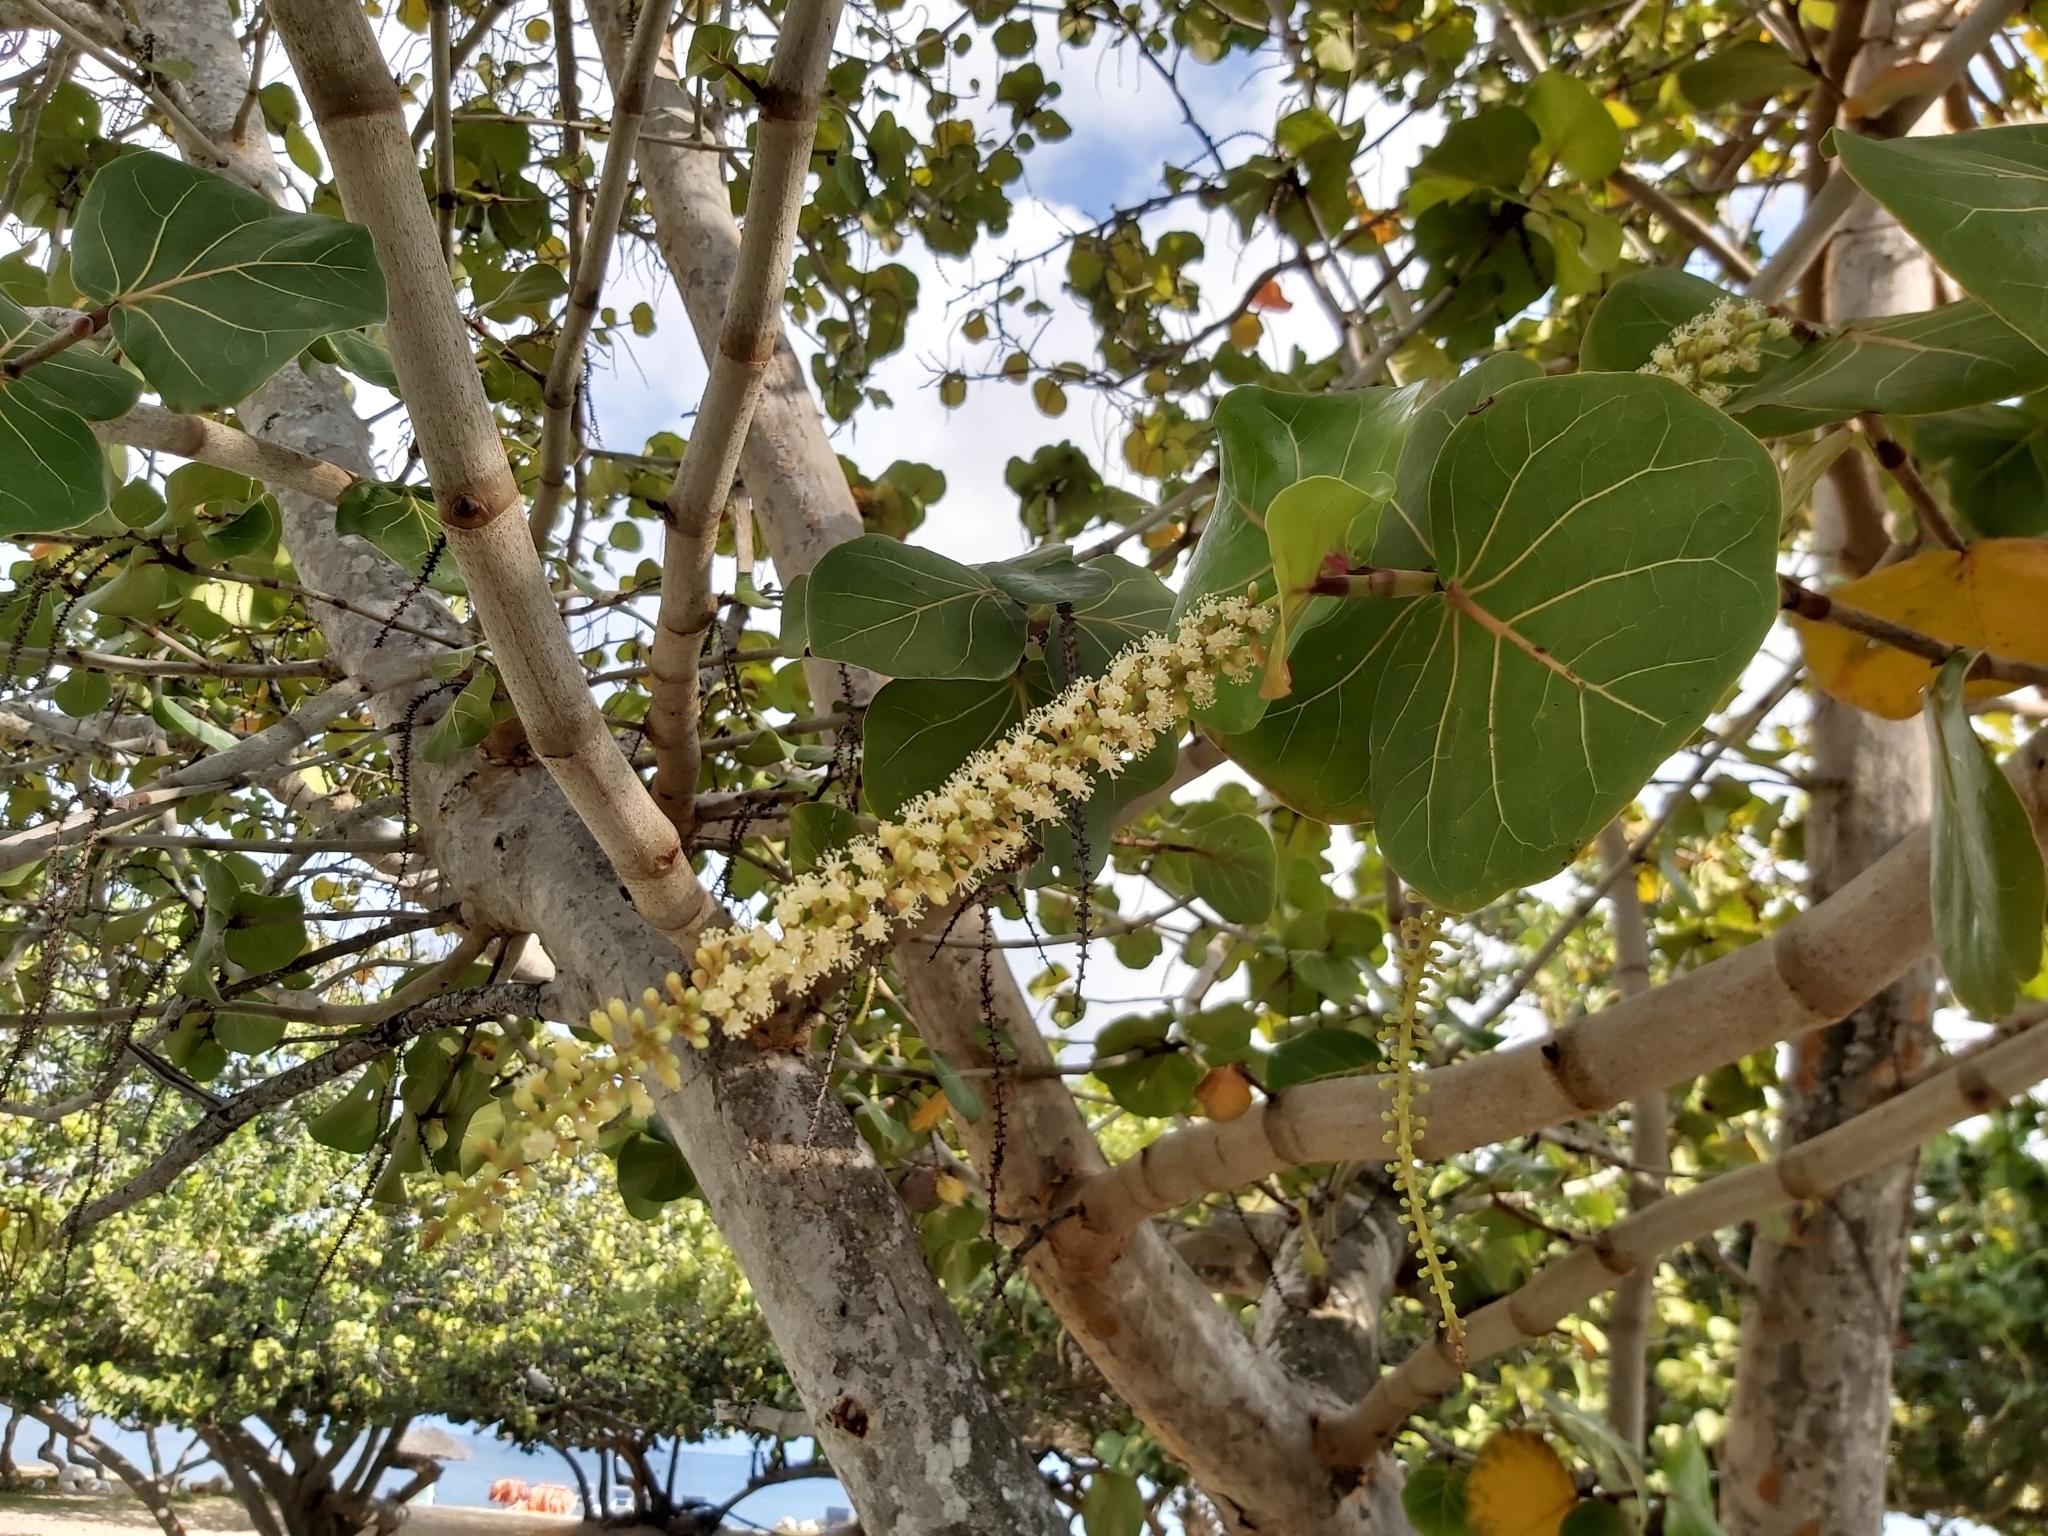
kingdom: Plantae
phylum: Tracheophyta
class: Magnoliopsida
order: Caryophyllales
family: Polygonaceae
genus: Coccoloba
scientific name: Coccoloba uvifera
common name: Seagrape
